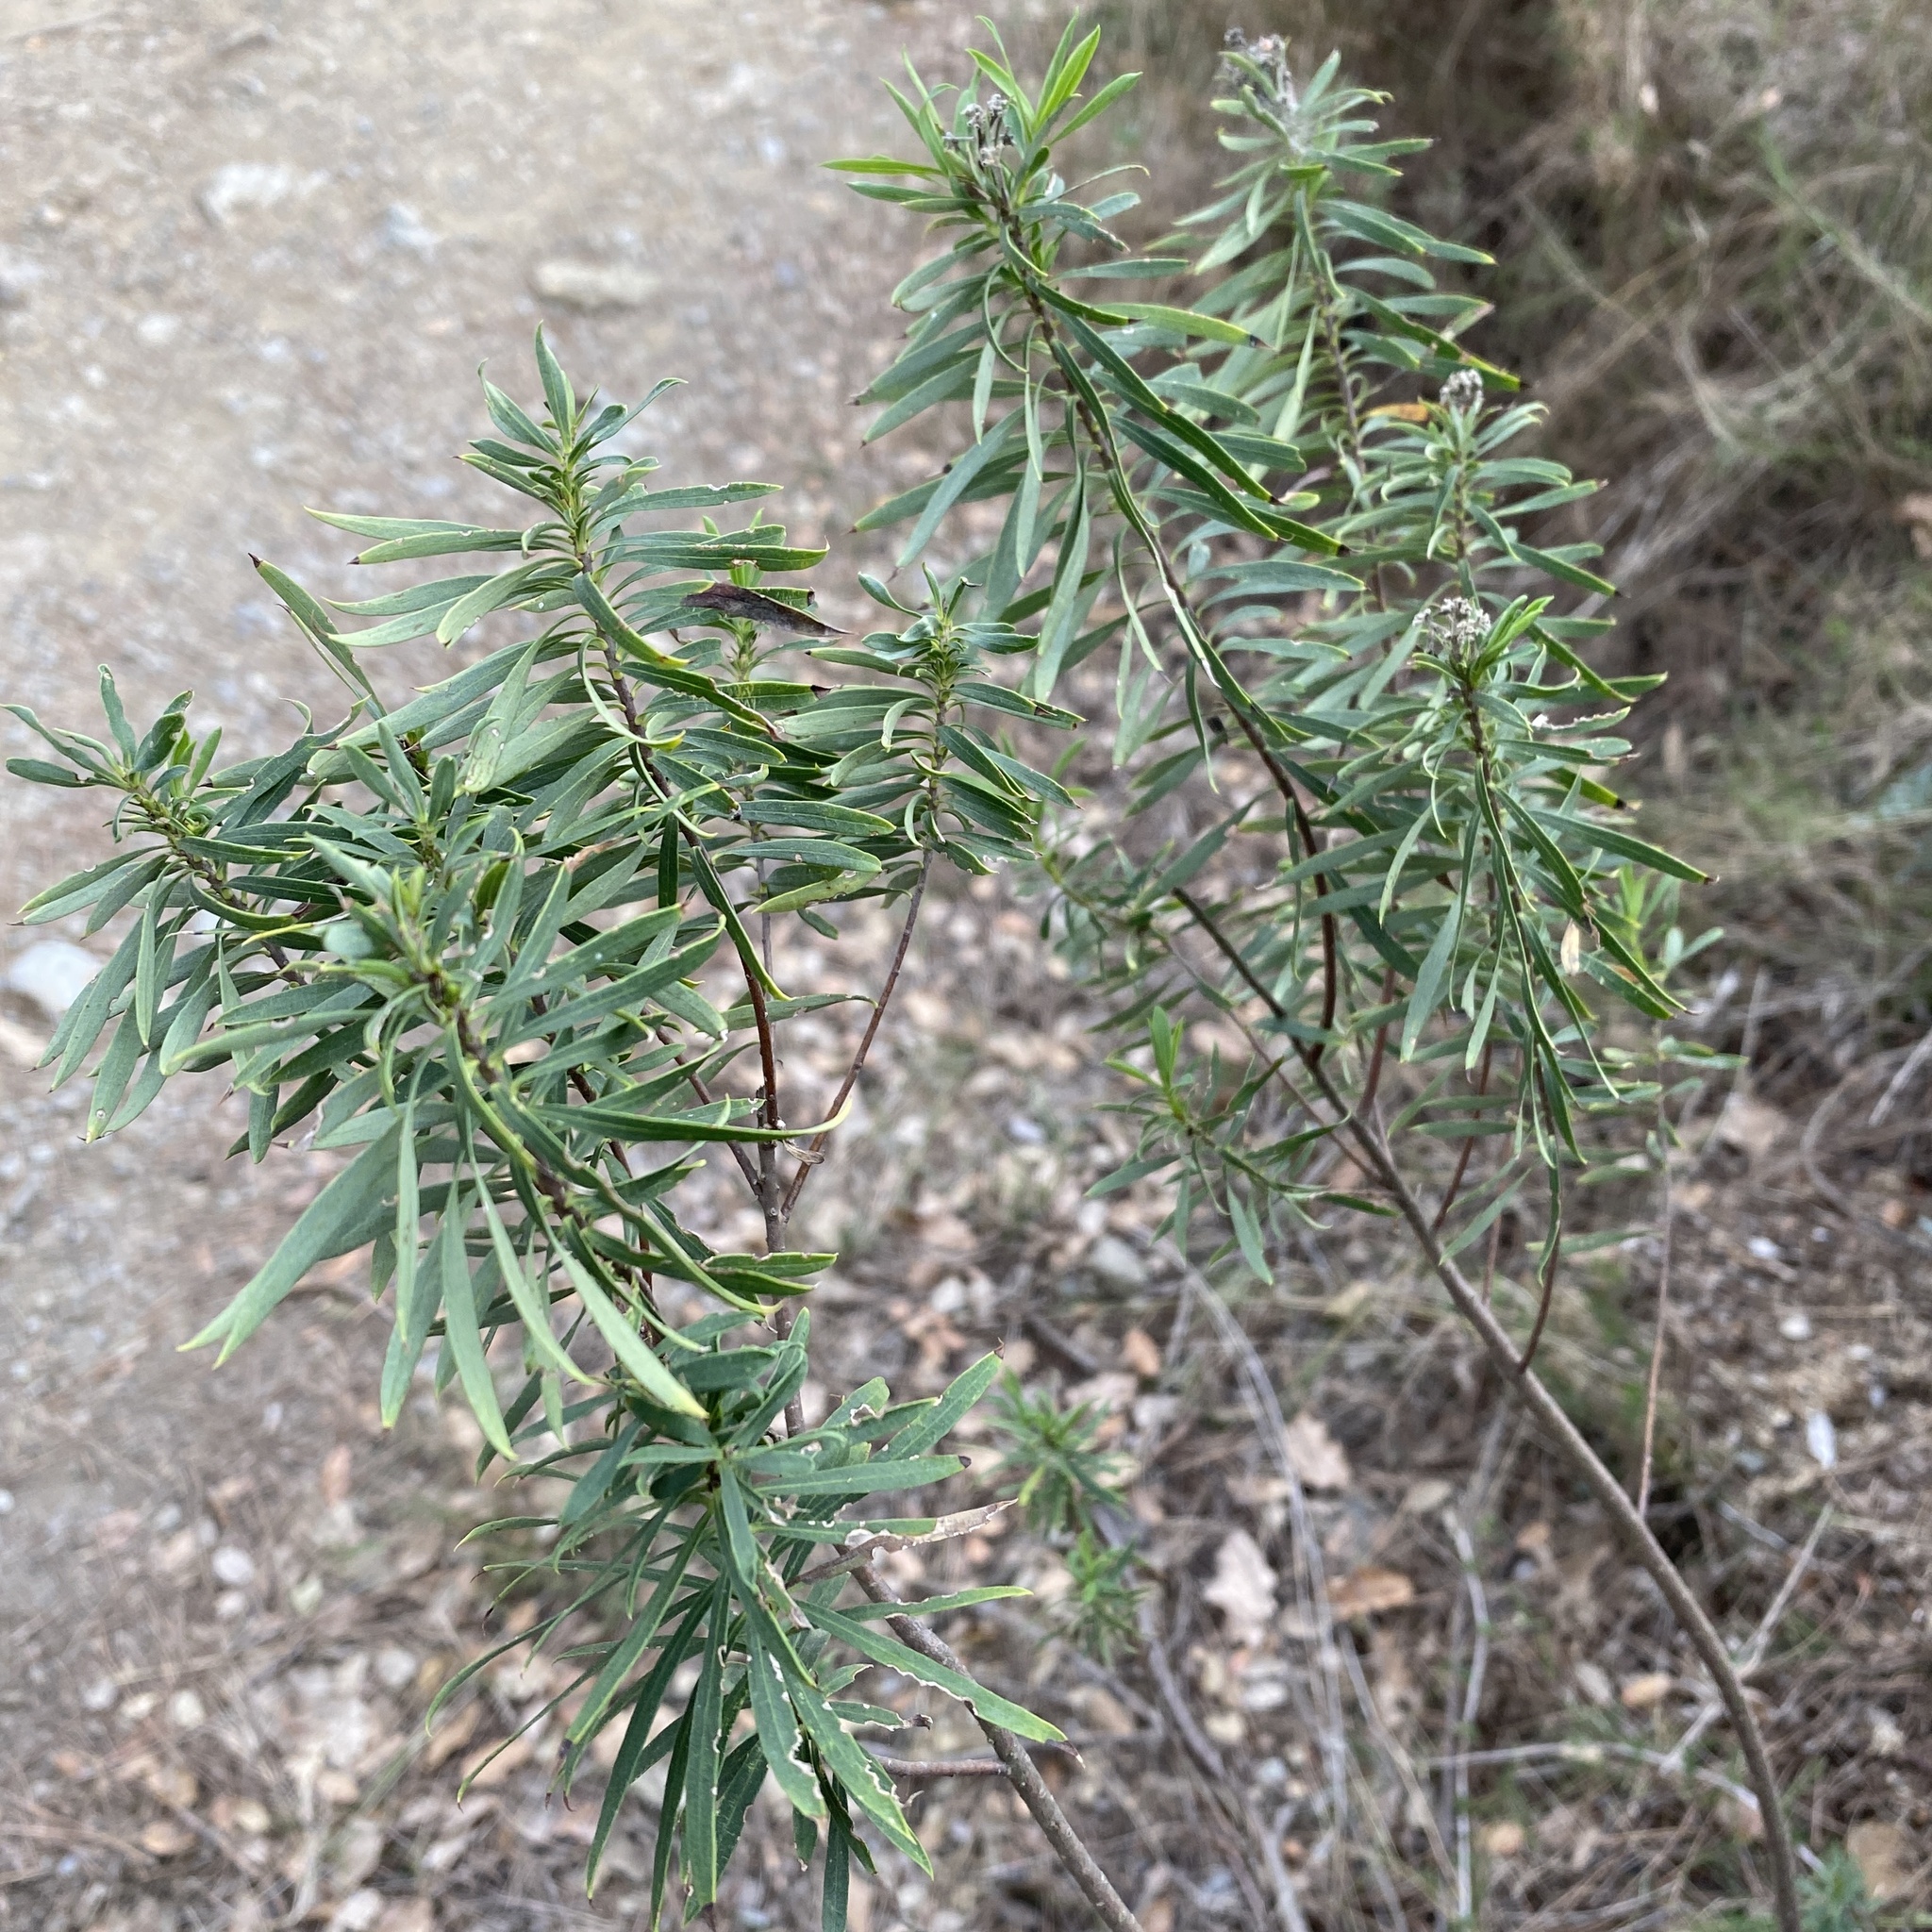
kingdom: Plantae
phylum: Tracheophyta
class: Magnoliopsida
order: Malvales
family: Thymelaeaceae
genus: Daphne
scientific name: Daphne gnidium
